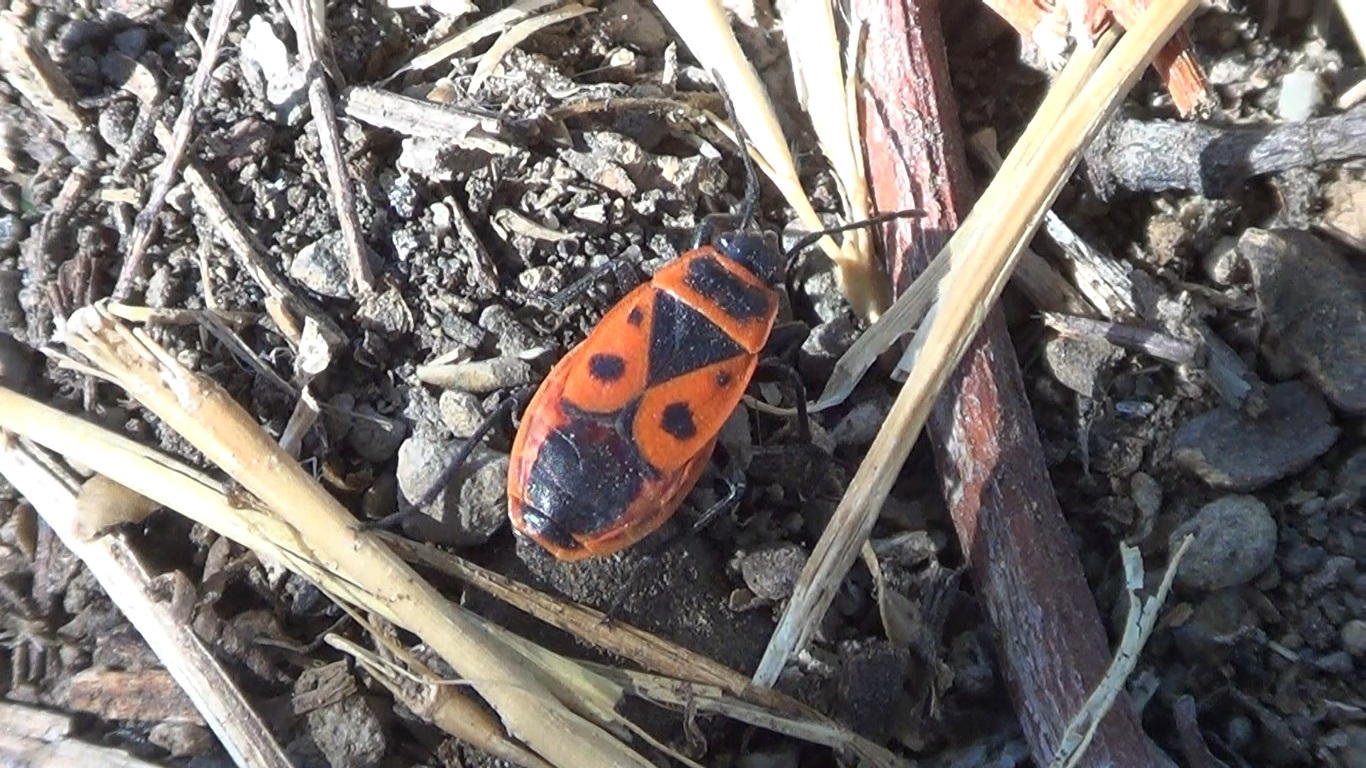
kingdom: Animalia
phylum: Arthropoda
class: Insecta
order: Hemiptera
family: Pyrrhocoridae
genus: Pyrrhocoris
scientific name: Pyrrhocoris apterus
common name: Firebug
